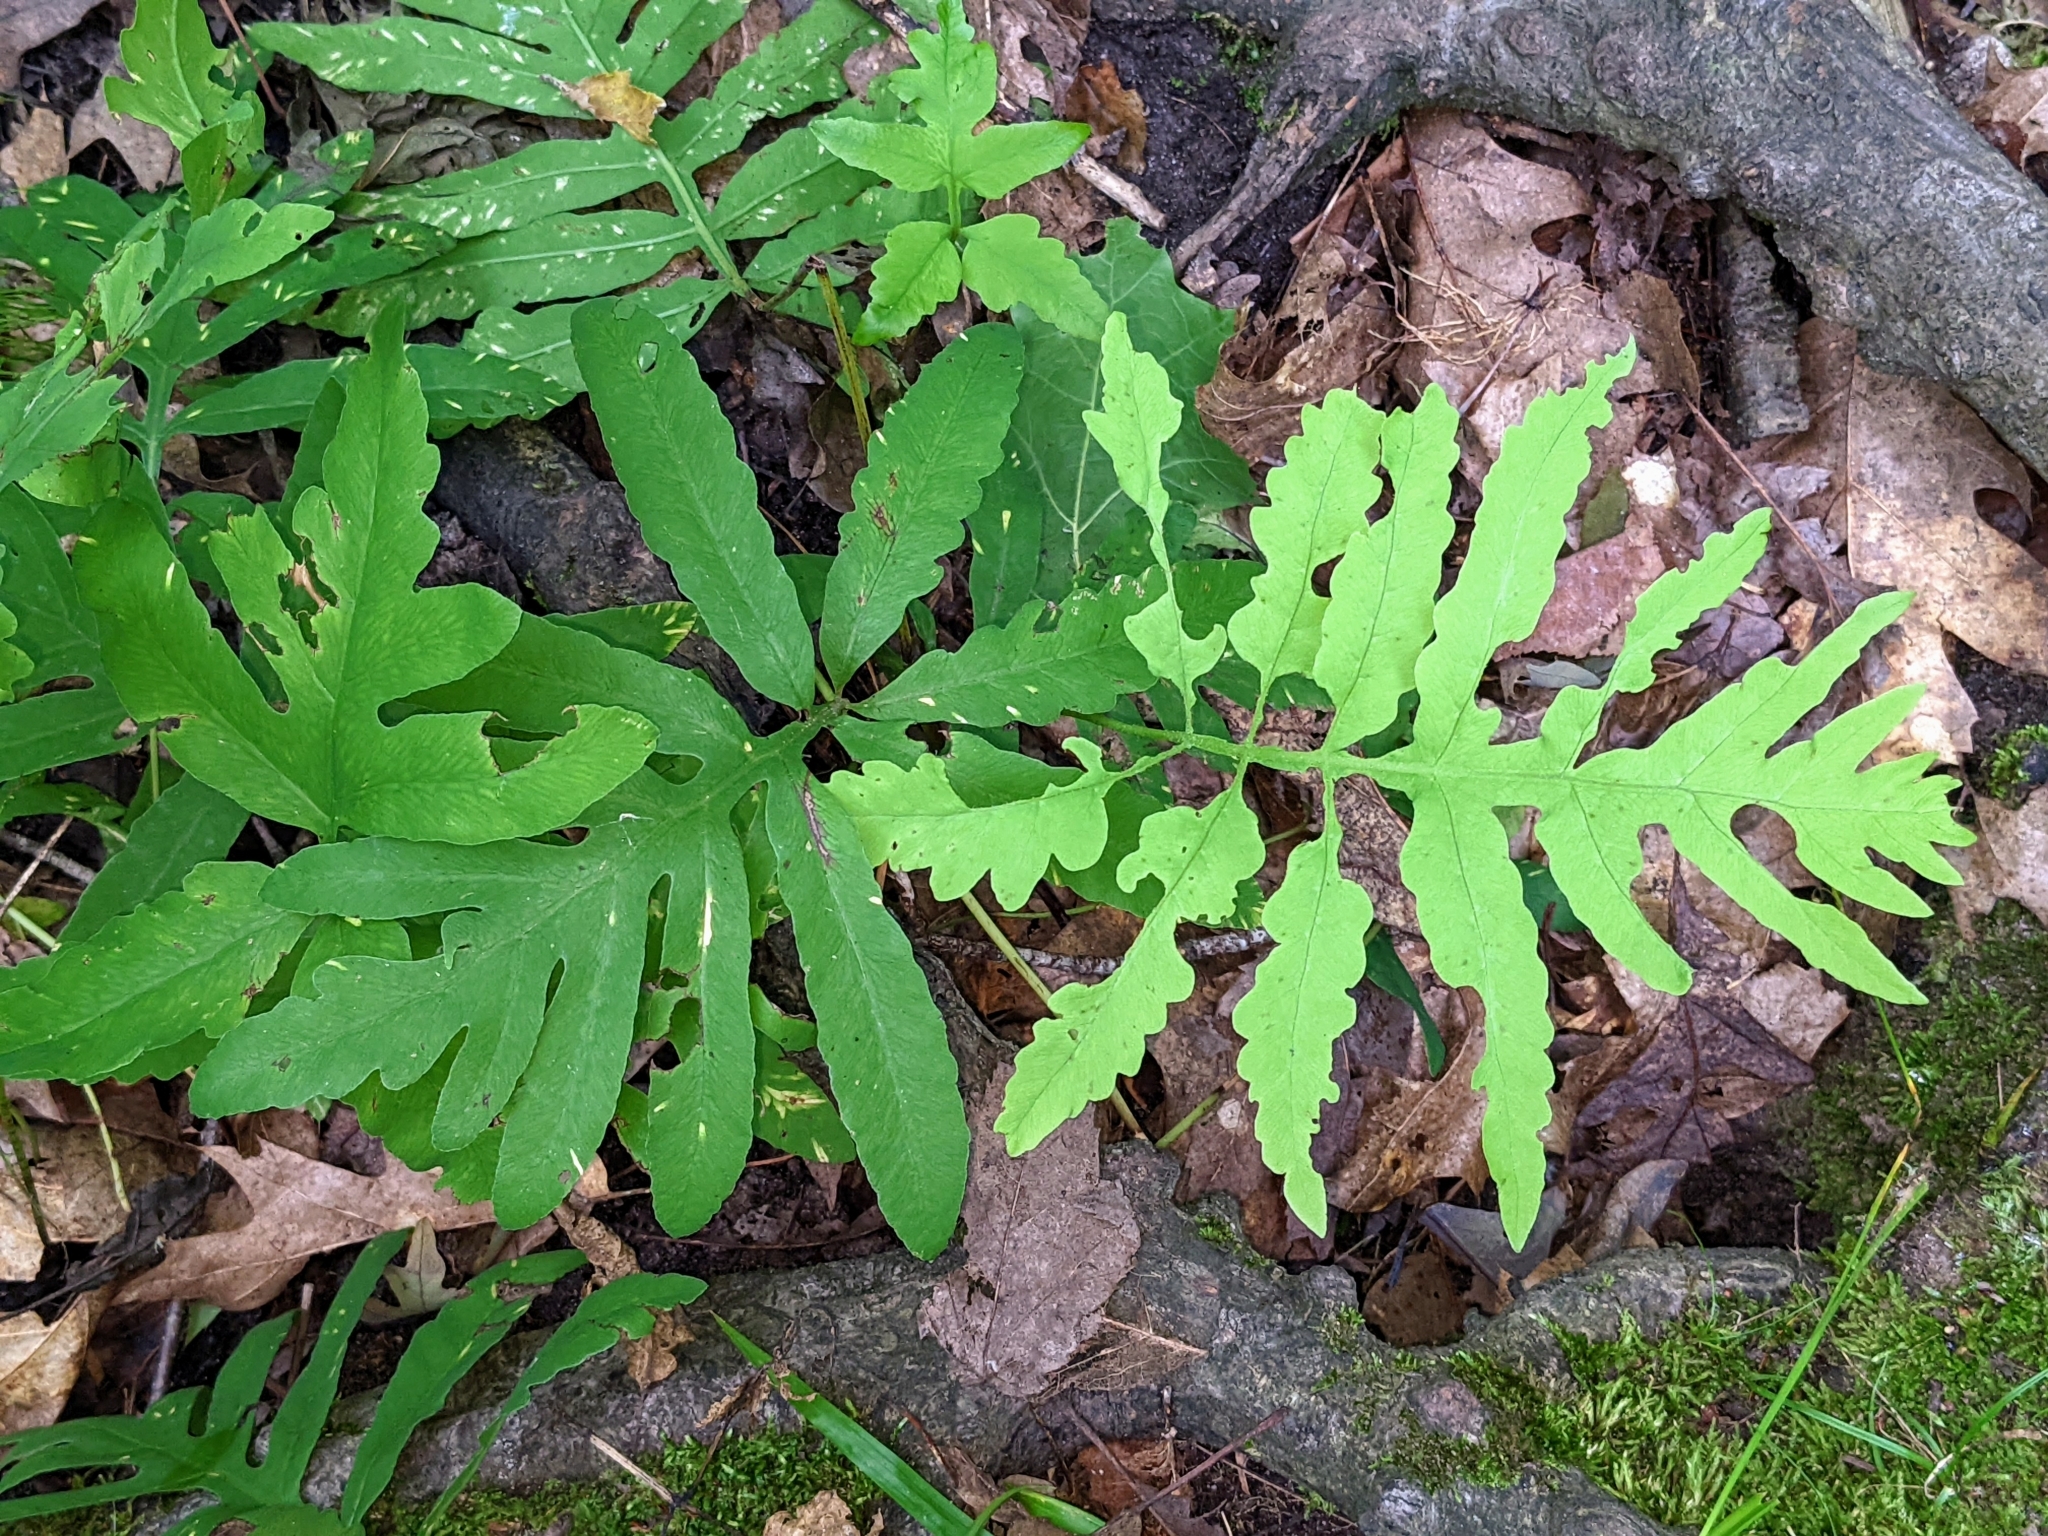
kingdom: Plantae
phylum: Tracheophyta
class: Polypodiopsida
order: Polypodiales
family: Onocleaceae
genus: Onoclea
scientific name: Onoclea sensibilis
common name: Sensitive fern
